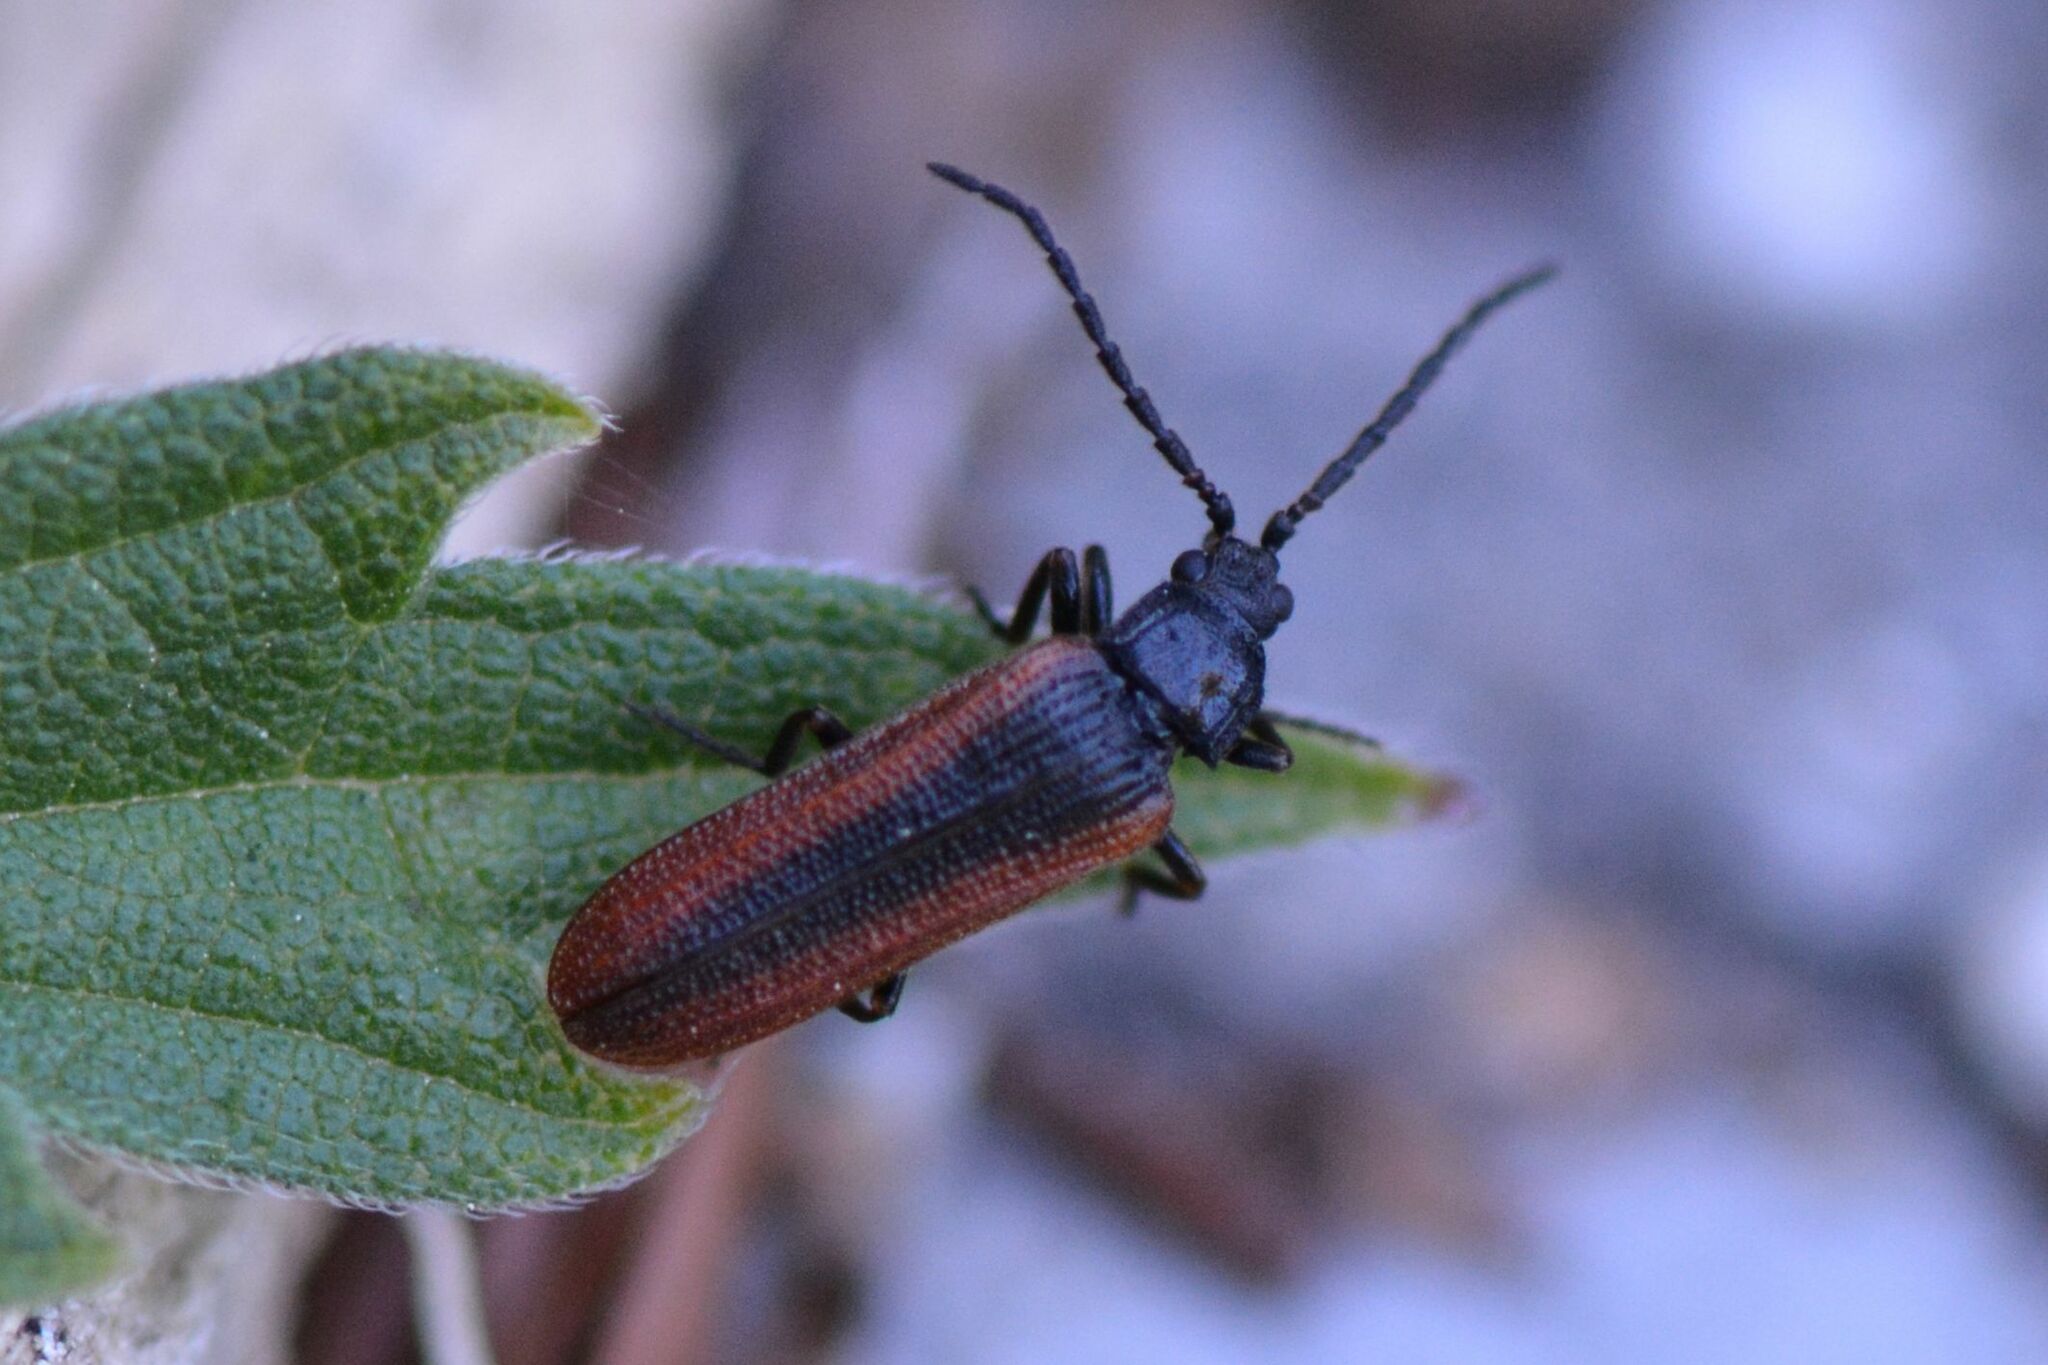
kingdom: Animalia
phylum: Arthropoda
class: Insecta
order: Coleoptera
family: Omalisidae
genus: Omalisus
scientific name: Omalisus fontisbellaquei
